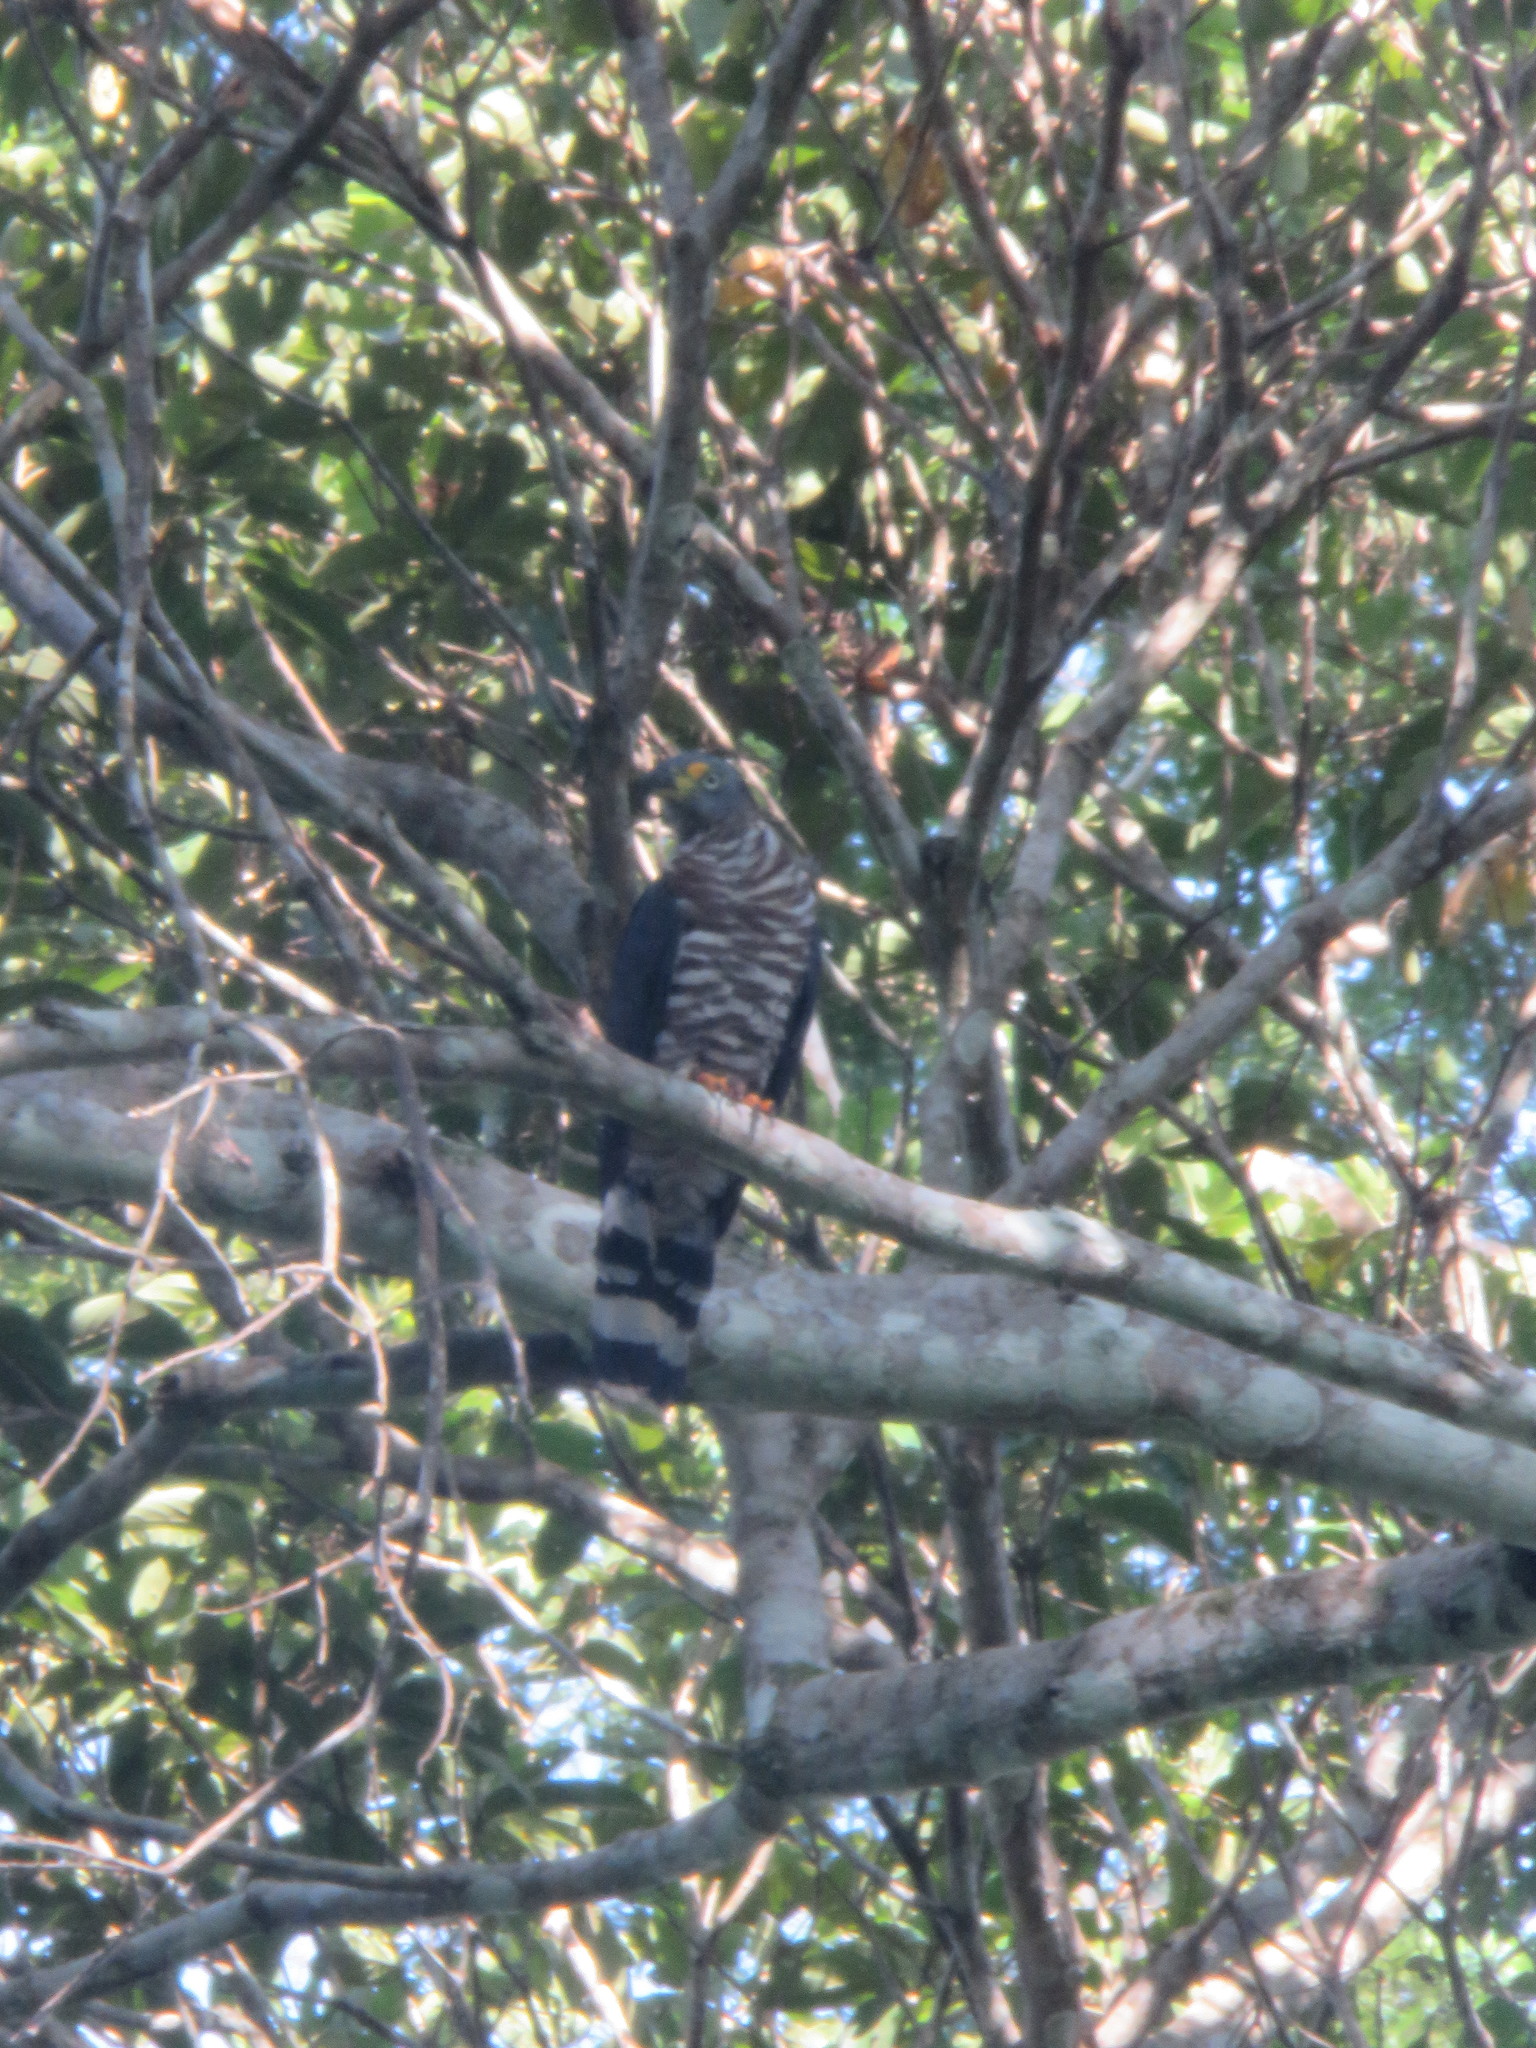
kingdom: Animalia
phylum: Chordata
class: Aves
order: Accipitriformes
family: Accipitridae
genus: Chondrohierax
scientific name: Chondrohierax uncinatus
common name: Hook-billed kite
